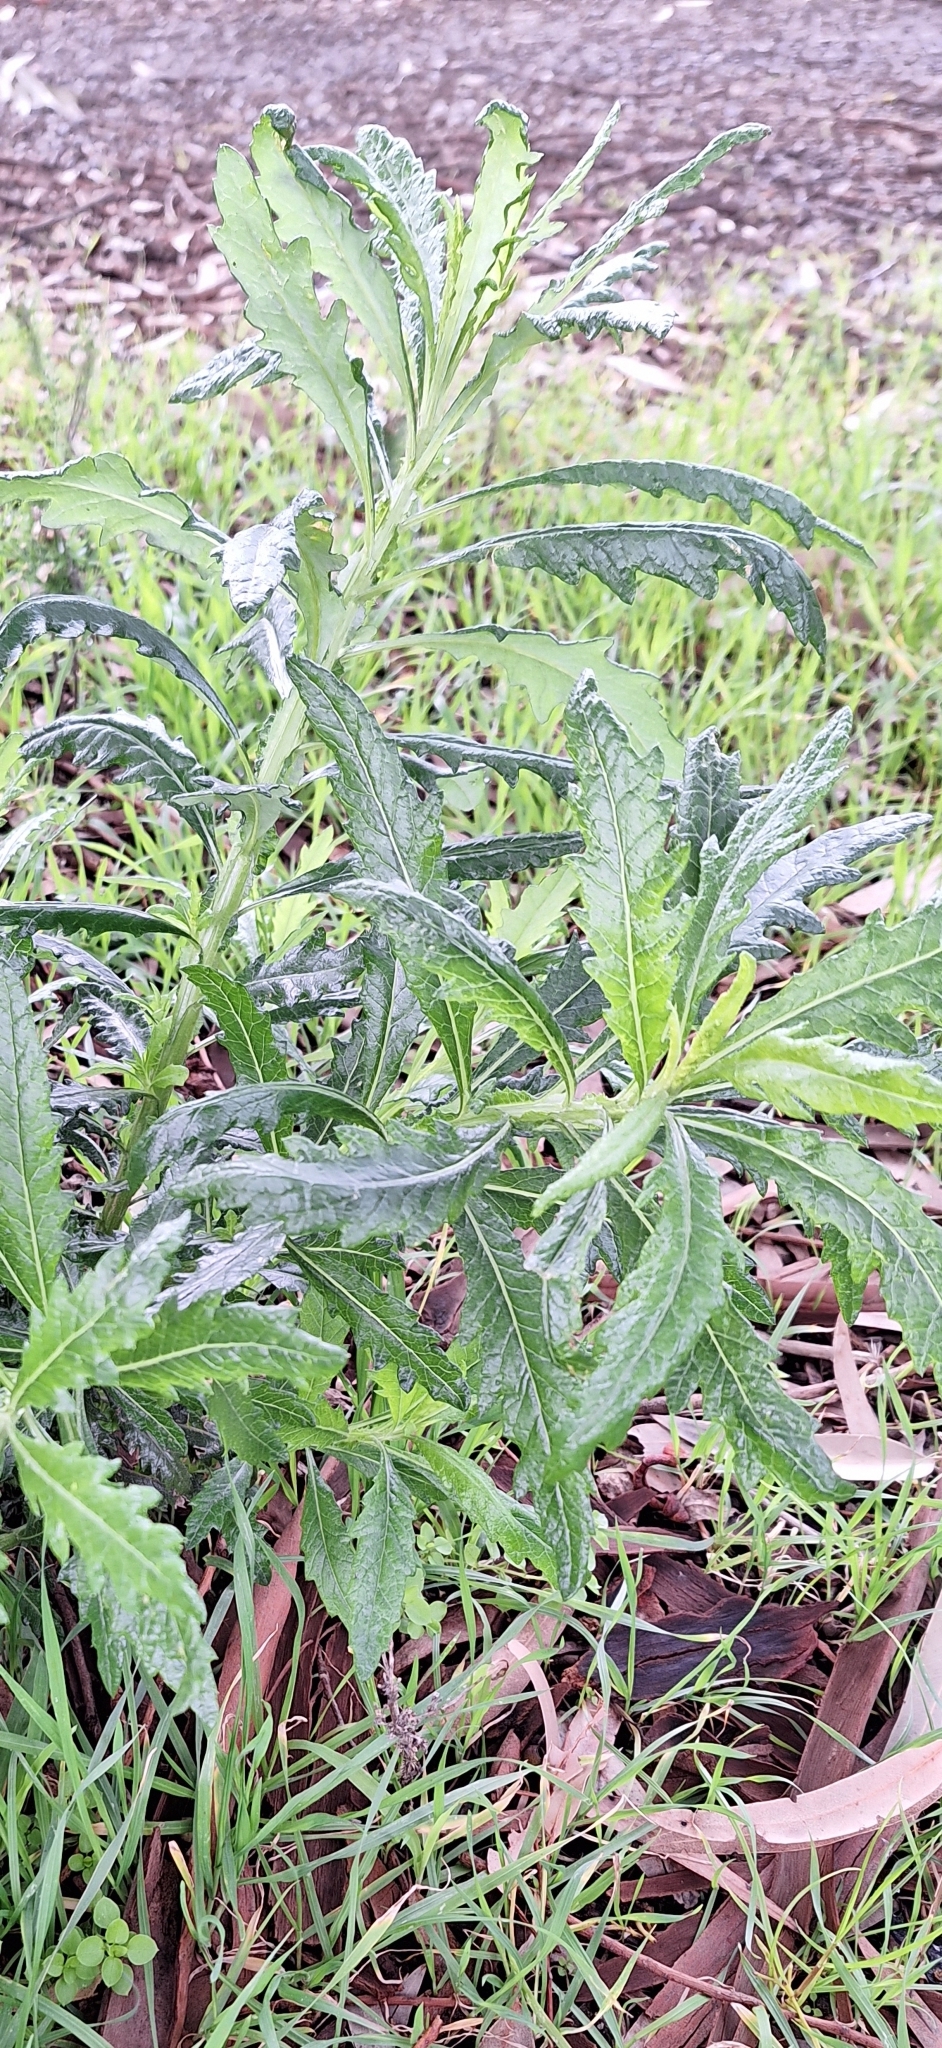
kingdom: Plantae
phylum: Tracheophyta
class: Magnoliopsida
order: Asterales
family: Asteraceae
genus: Senecio
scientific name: Senecio pterophorus
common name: Shoddy ragwort
